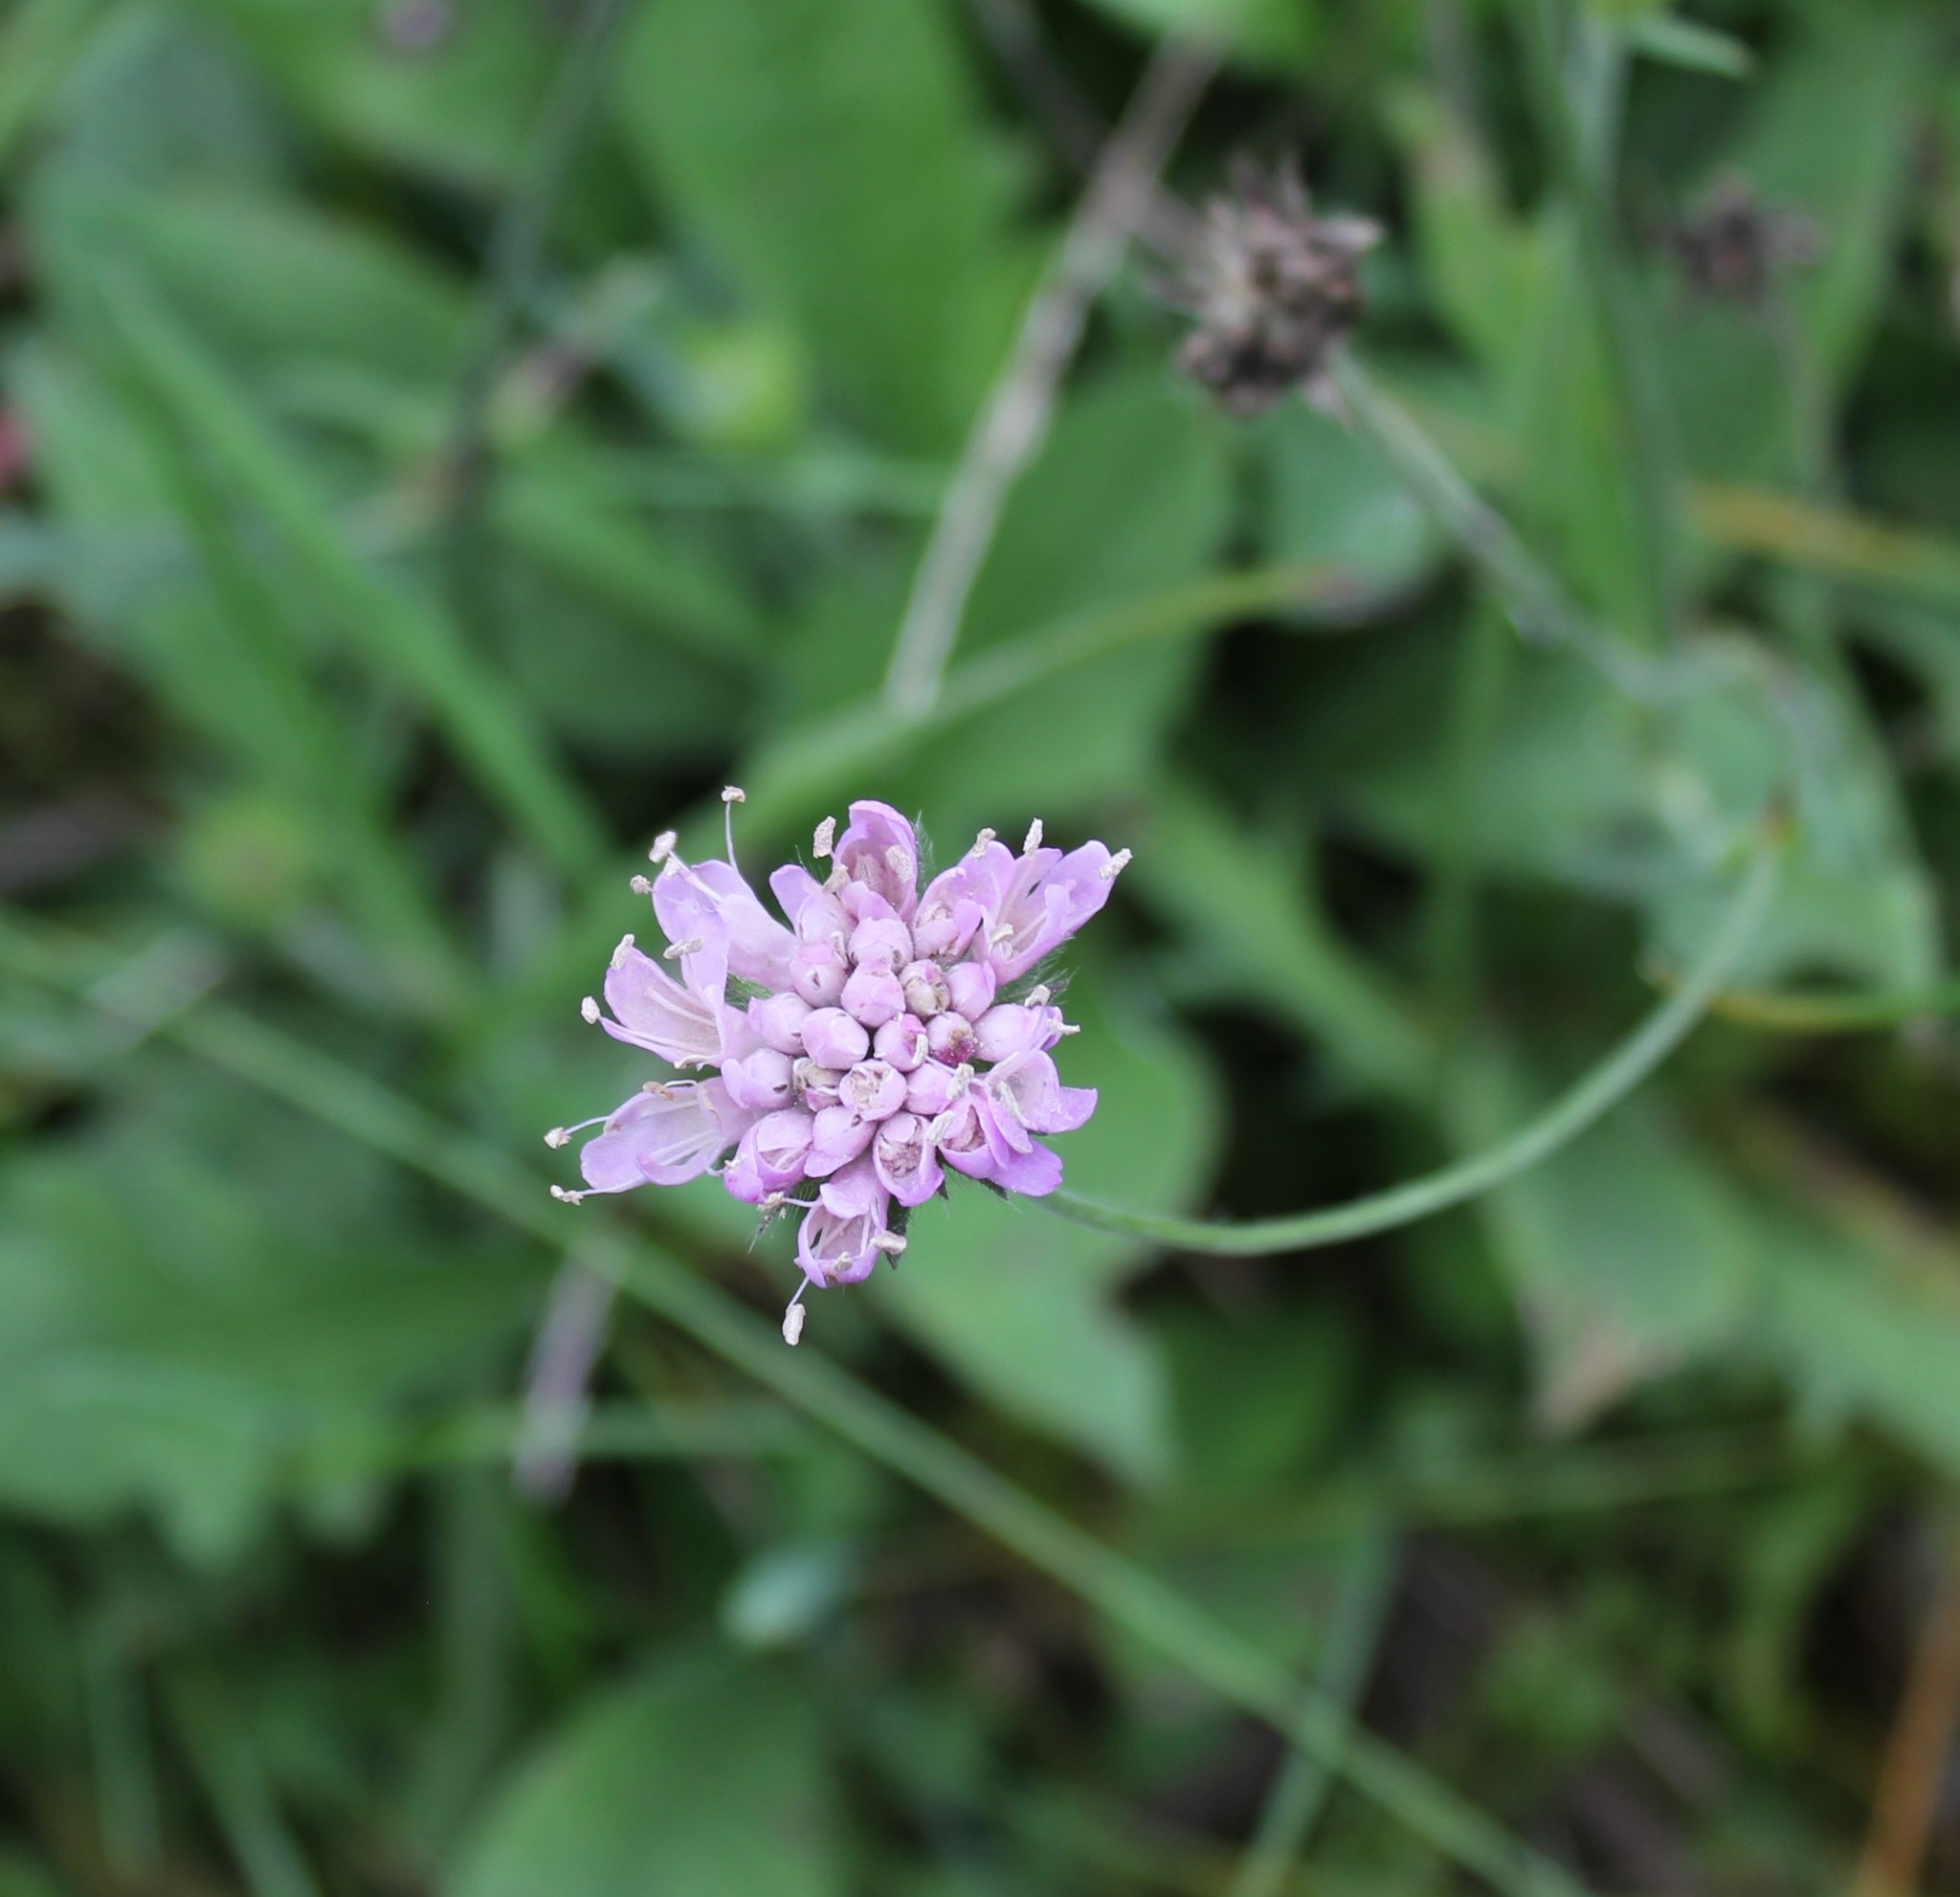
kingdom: Plantae
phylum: Tracheophyta
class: Magnoliopsida
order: Dipsacales
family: Caprifoliaceae
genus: Knautia
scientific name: Knautia arvensis
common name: Field scabiosa
